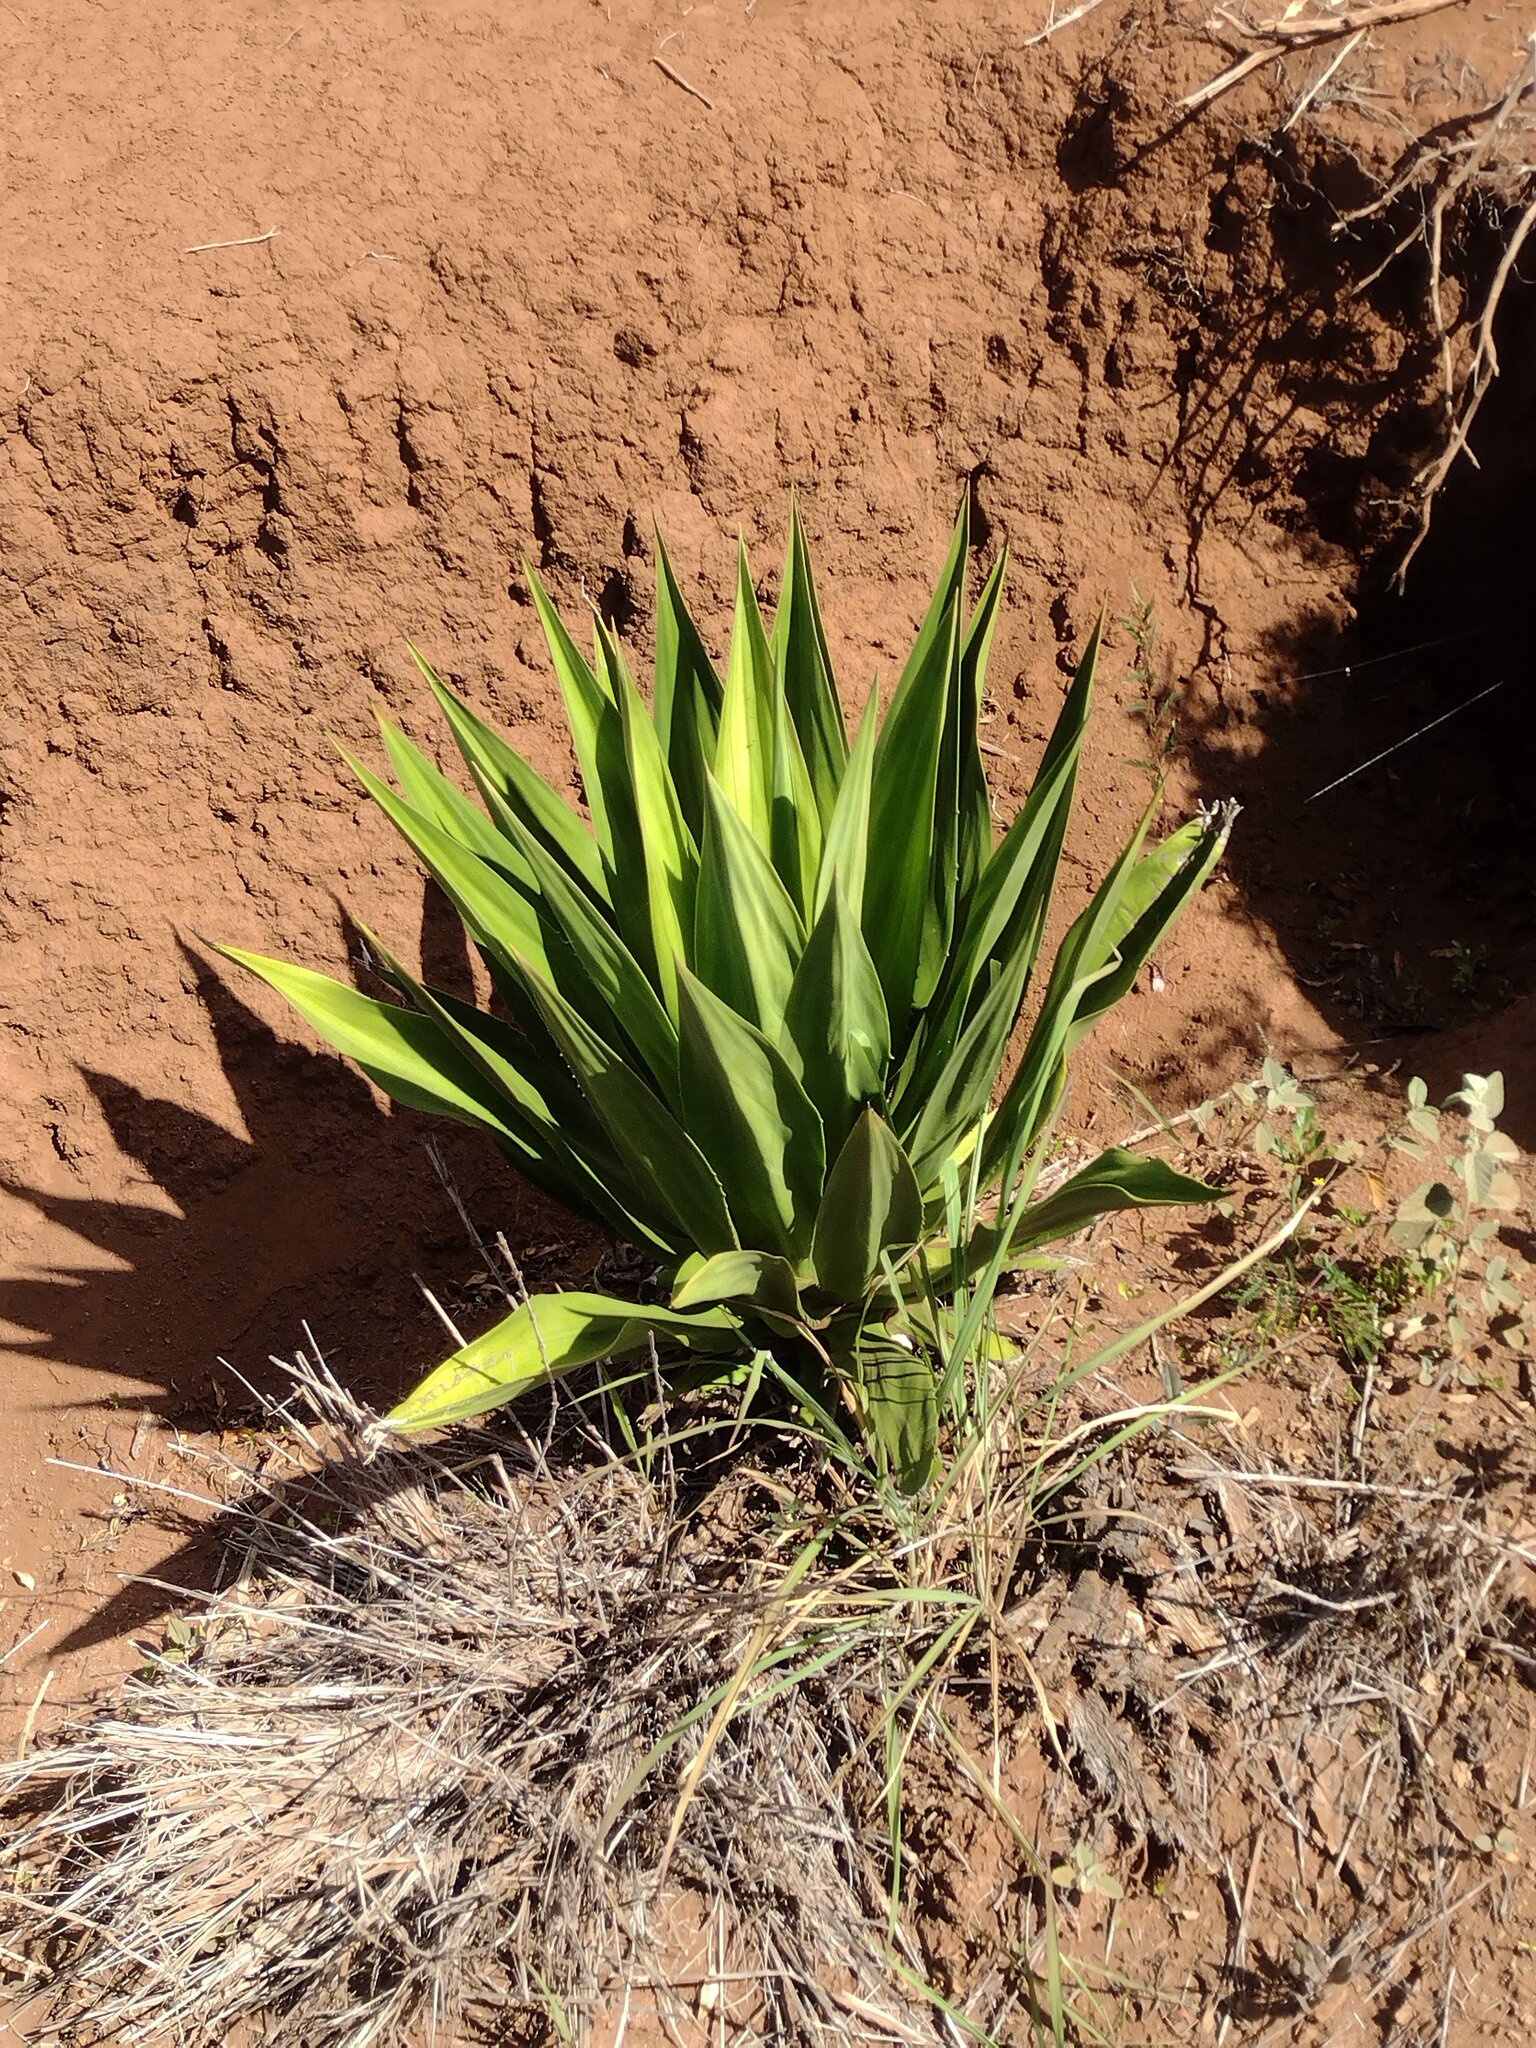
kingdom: Plantae
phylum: Tracheophyta
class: Liliopsida
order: Asparagales
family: Asparagaceae
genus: Furcraea
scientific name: Furcraea foetida
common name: Mauritius hemp
